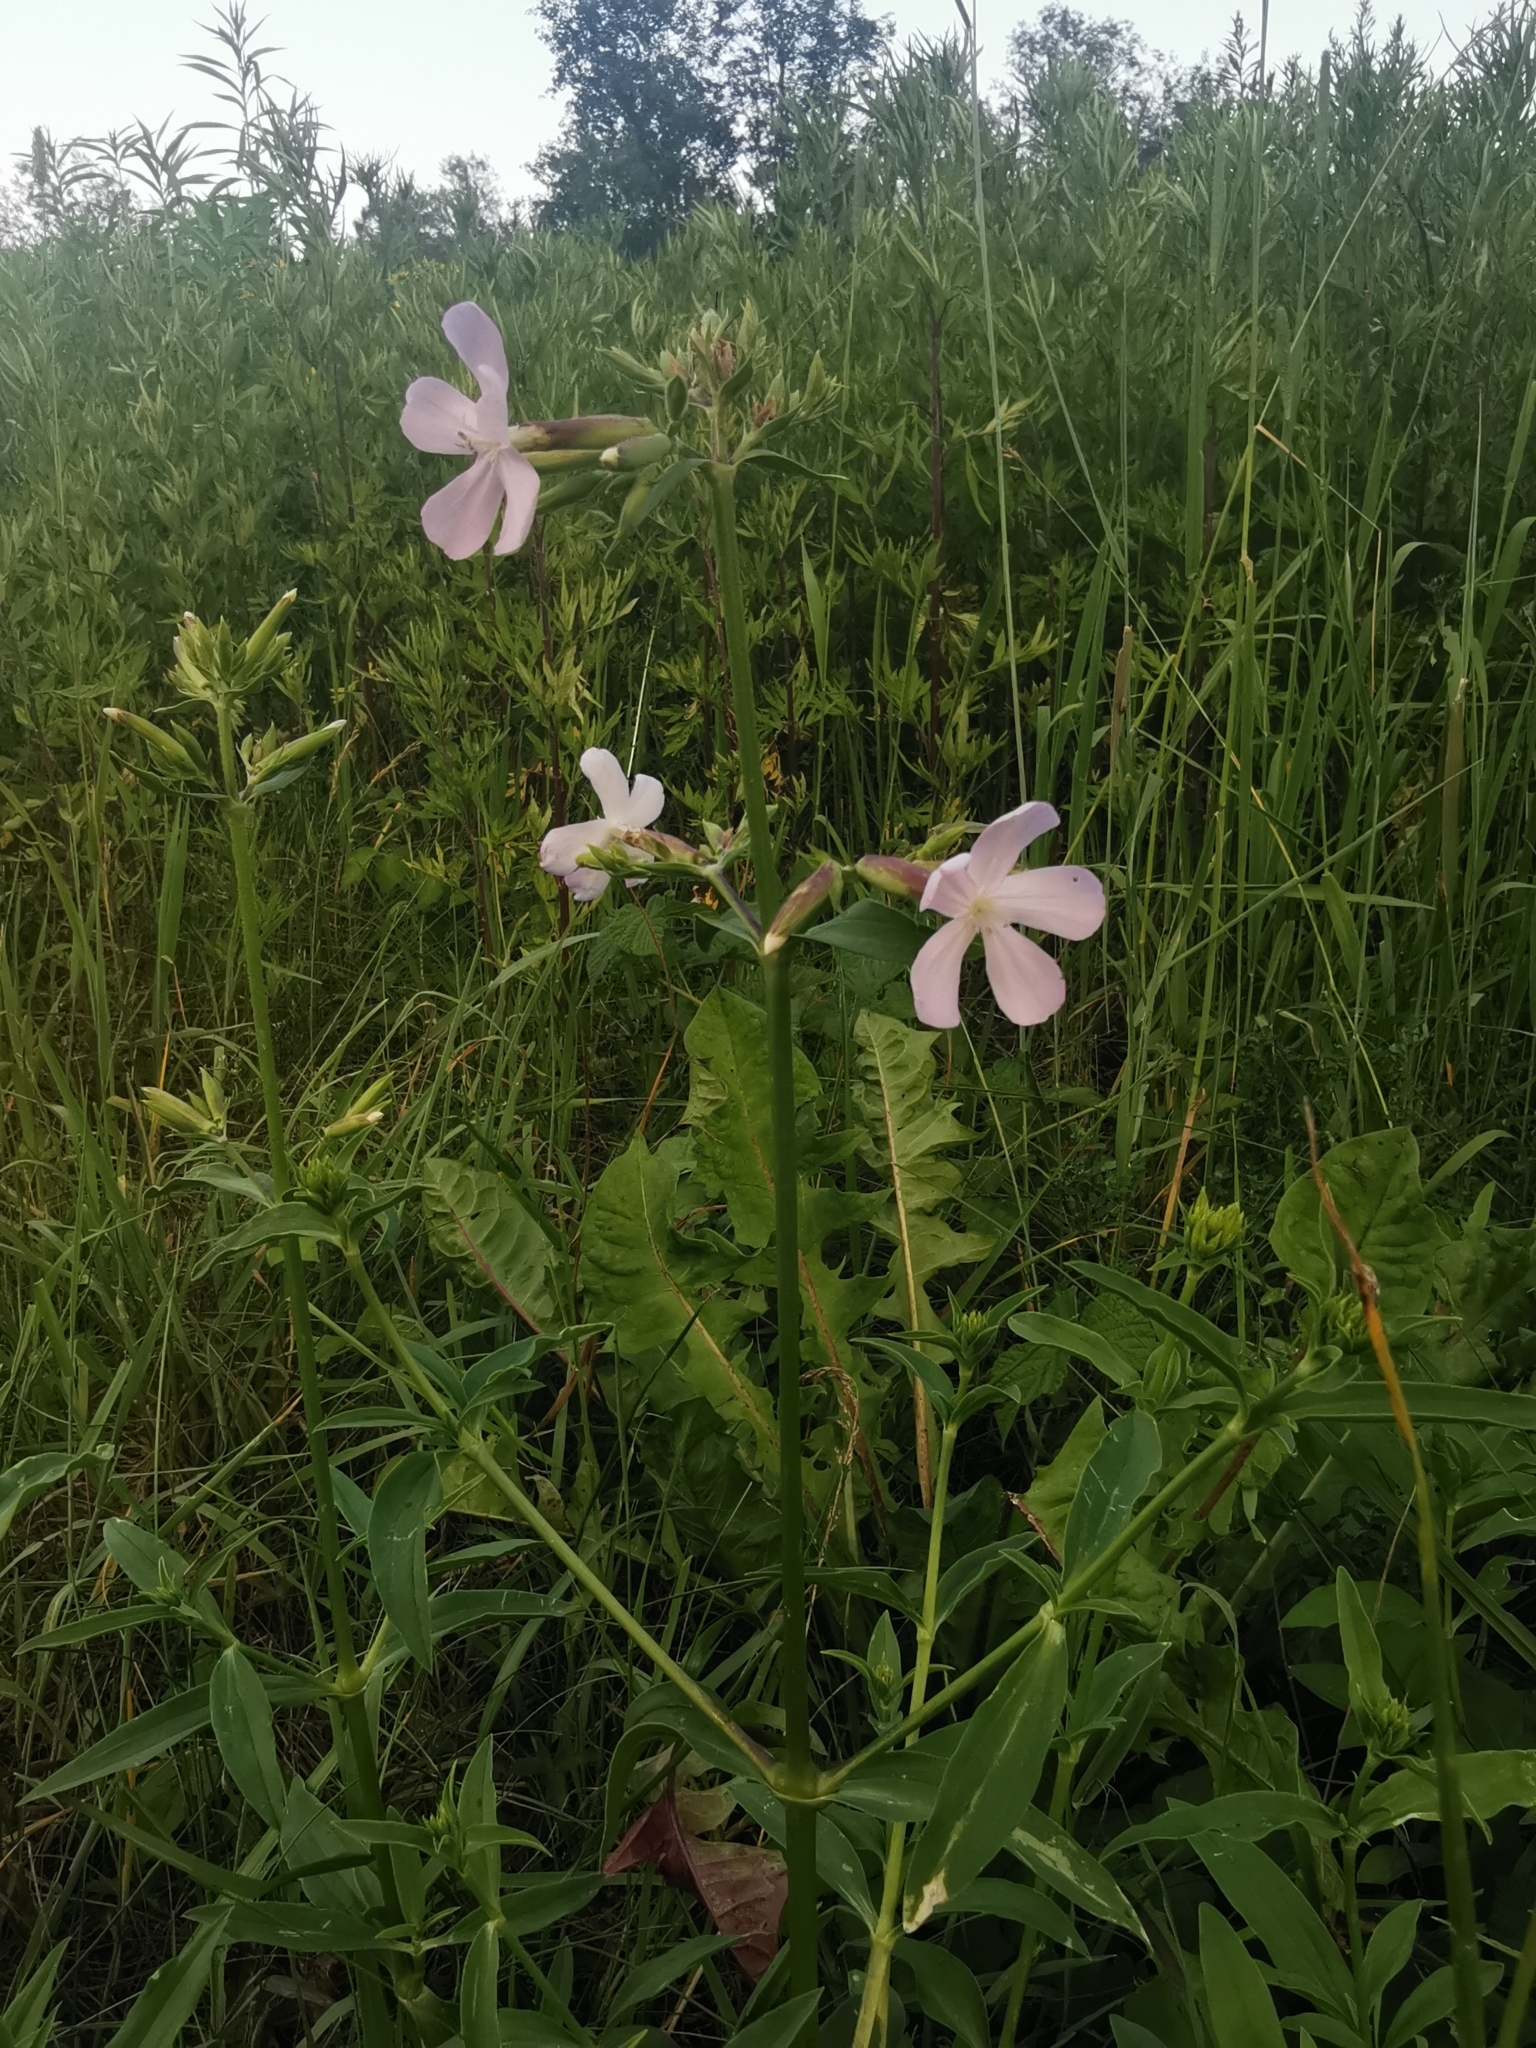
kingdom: Plantae
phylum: Tracheophyta
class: Magnoliopsida
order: Caryophyllales
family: Caryophyllaceae
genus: Saponaria
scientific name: Saponaria officinalis
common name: Soapwort
